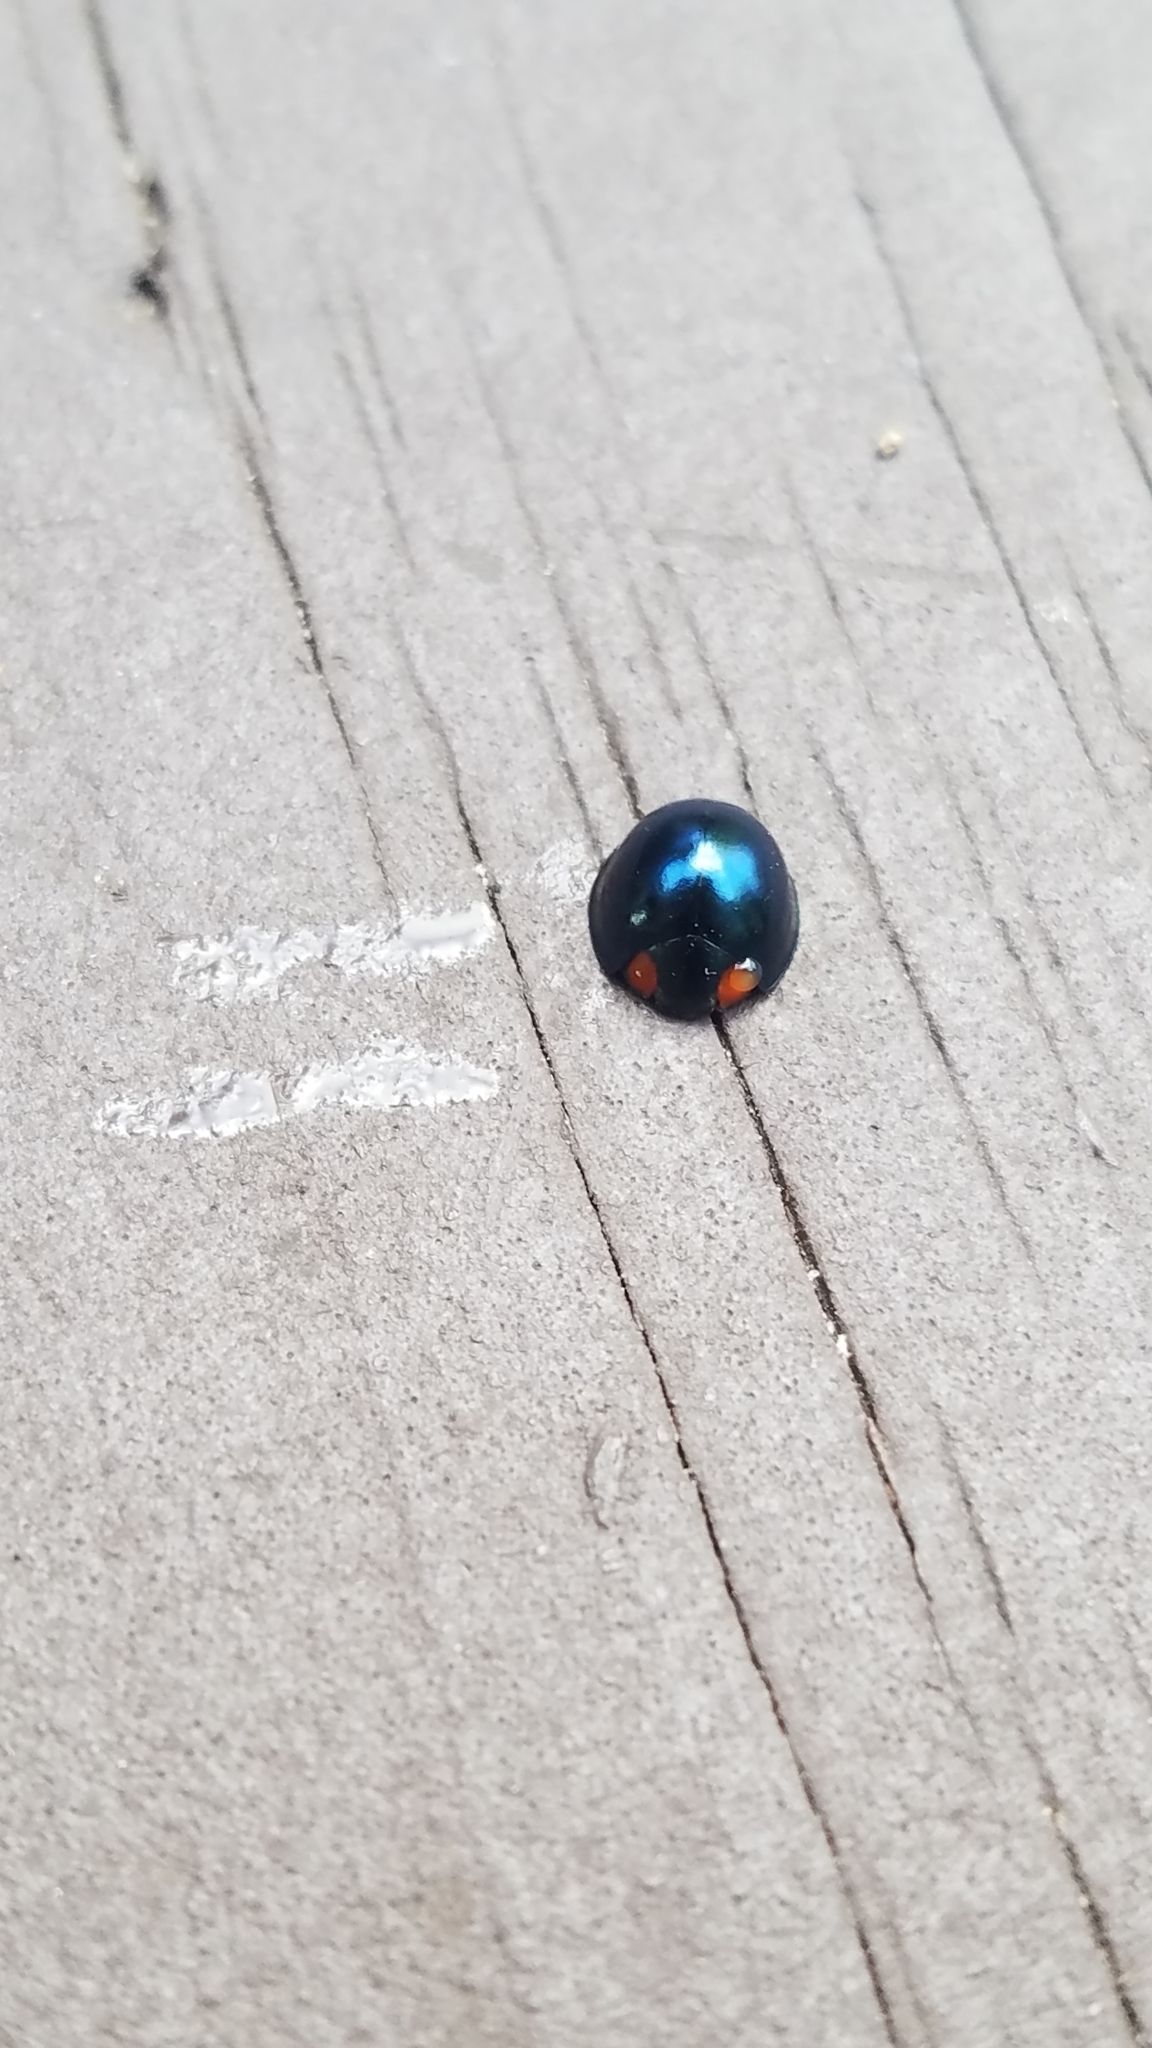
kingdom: Animalia
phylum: Arthropoda
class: Insecta
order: Coleoptera
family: Coccinellidae
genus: Curinus
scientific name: Curinus coeruleus
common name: Ladybird beetle
